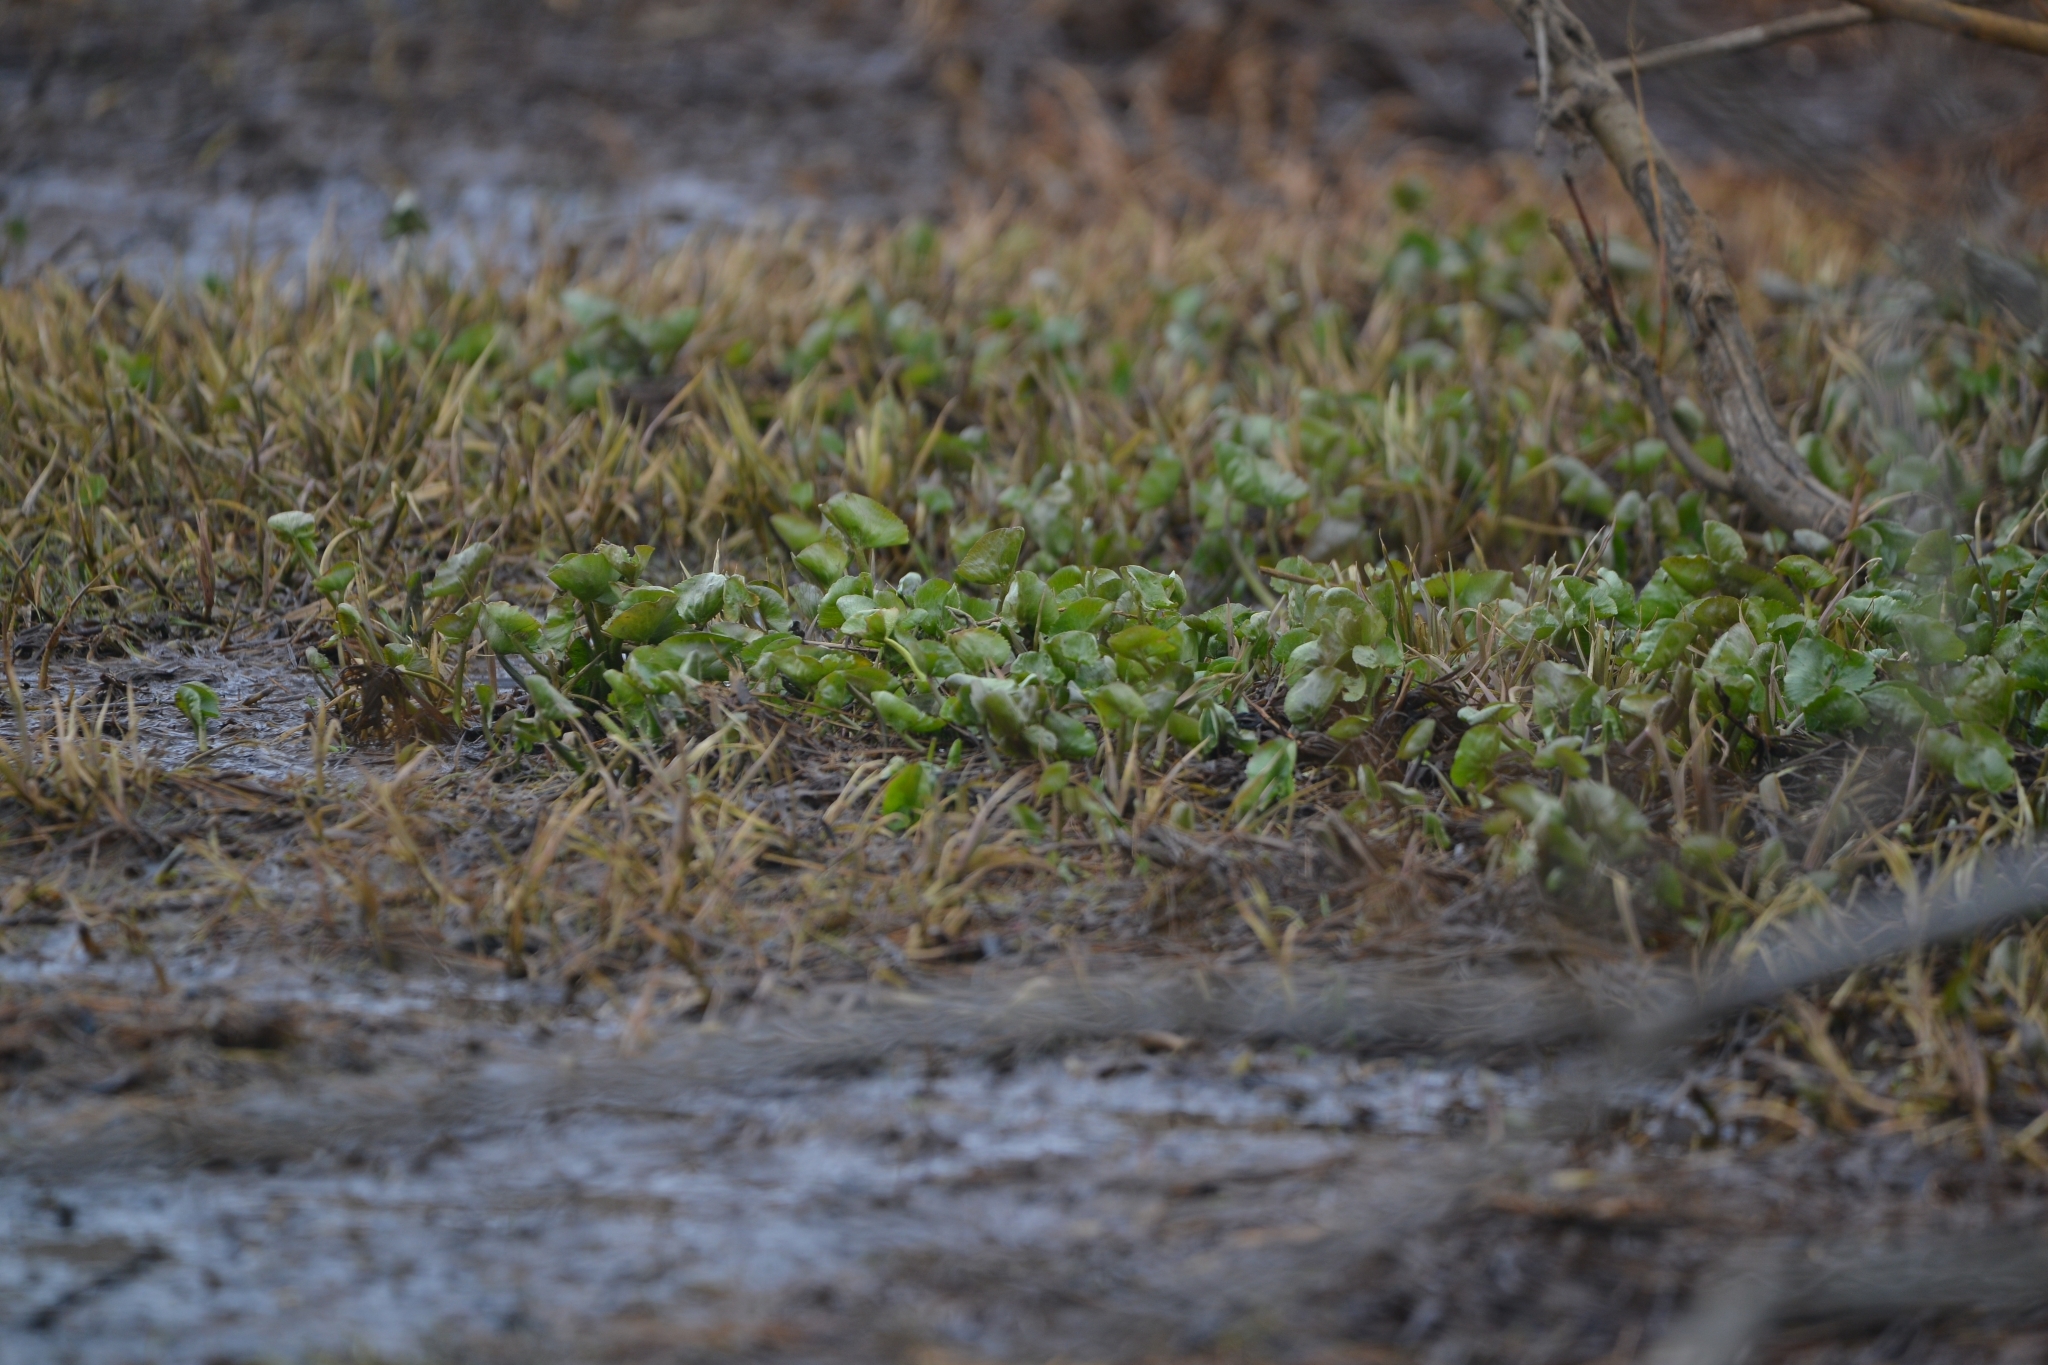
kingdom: Plantae
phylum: Tracheophyta
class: Magnoliopsida
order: Ranunculales
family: Ranunculaceae
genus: Caltha
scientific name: Caltha palustris
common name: Marsh marigold
